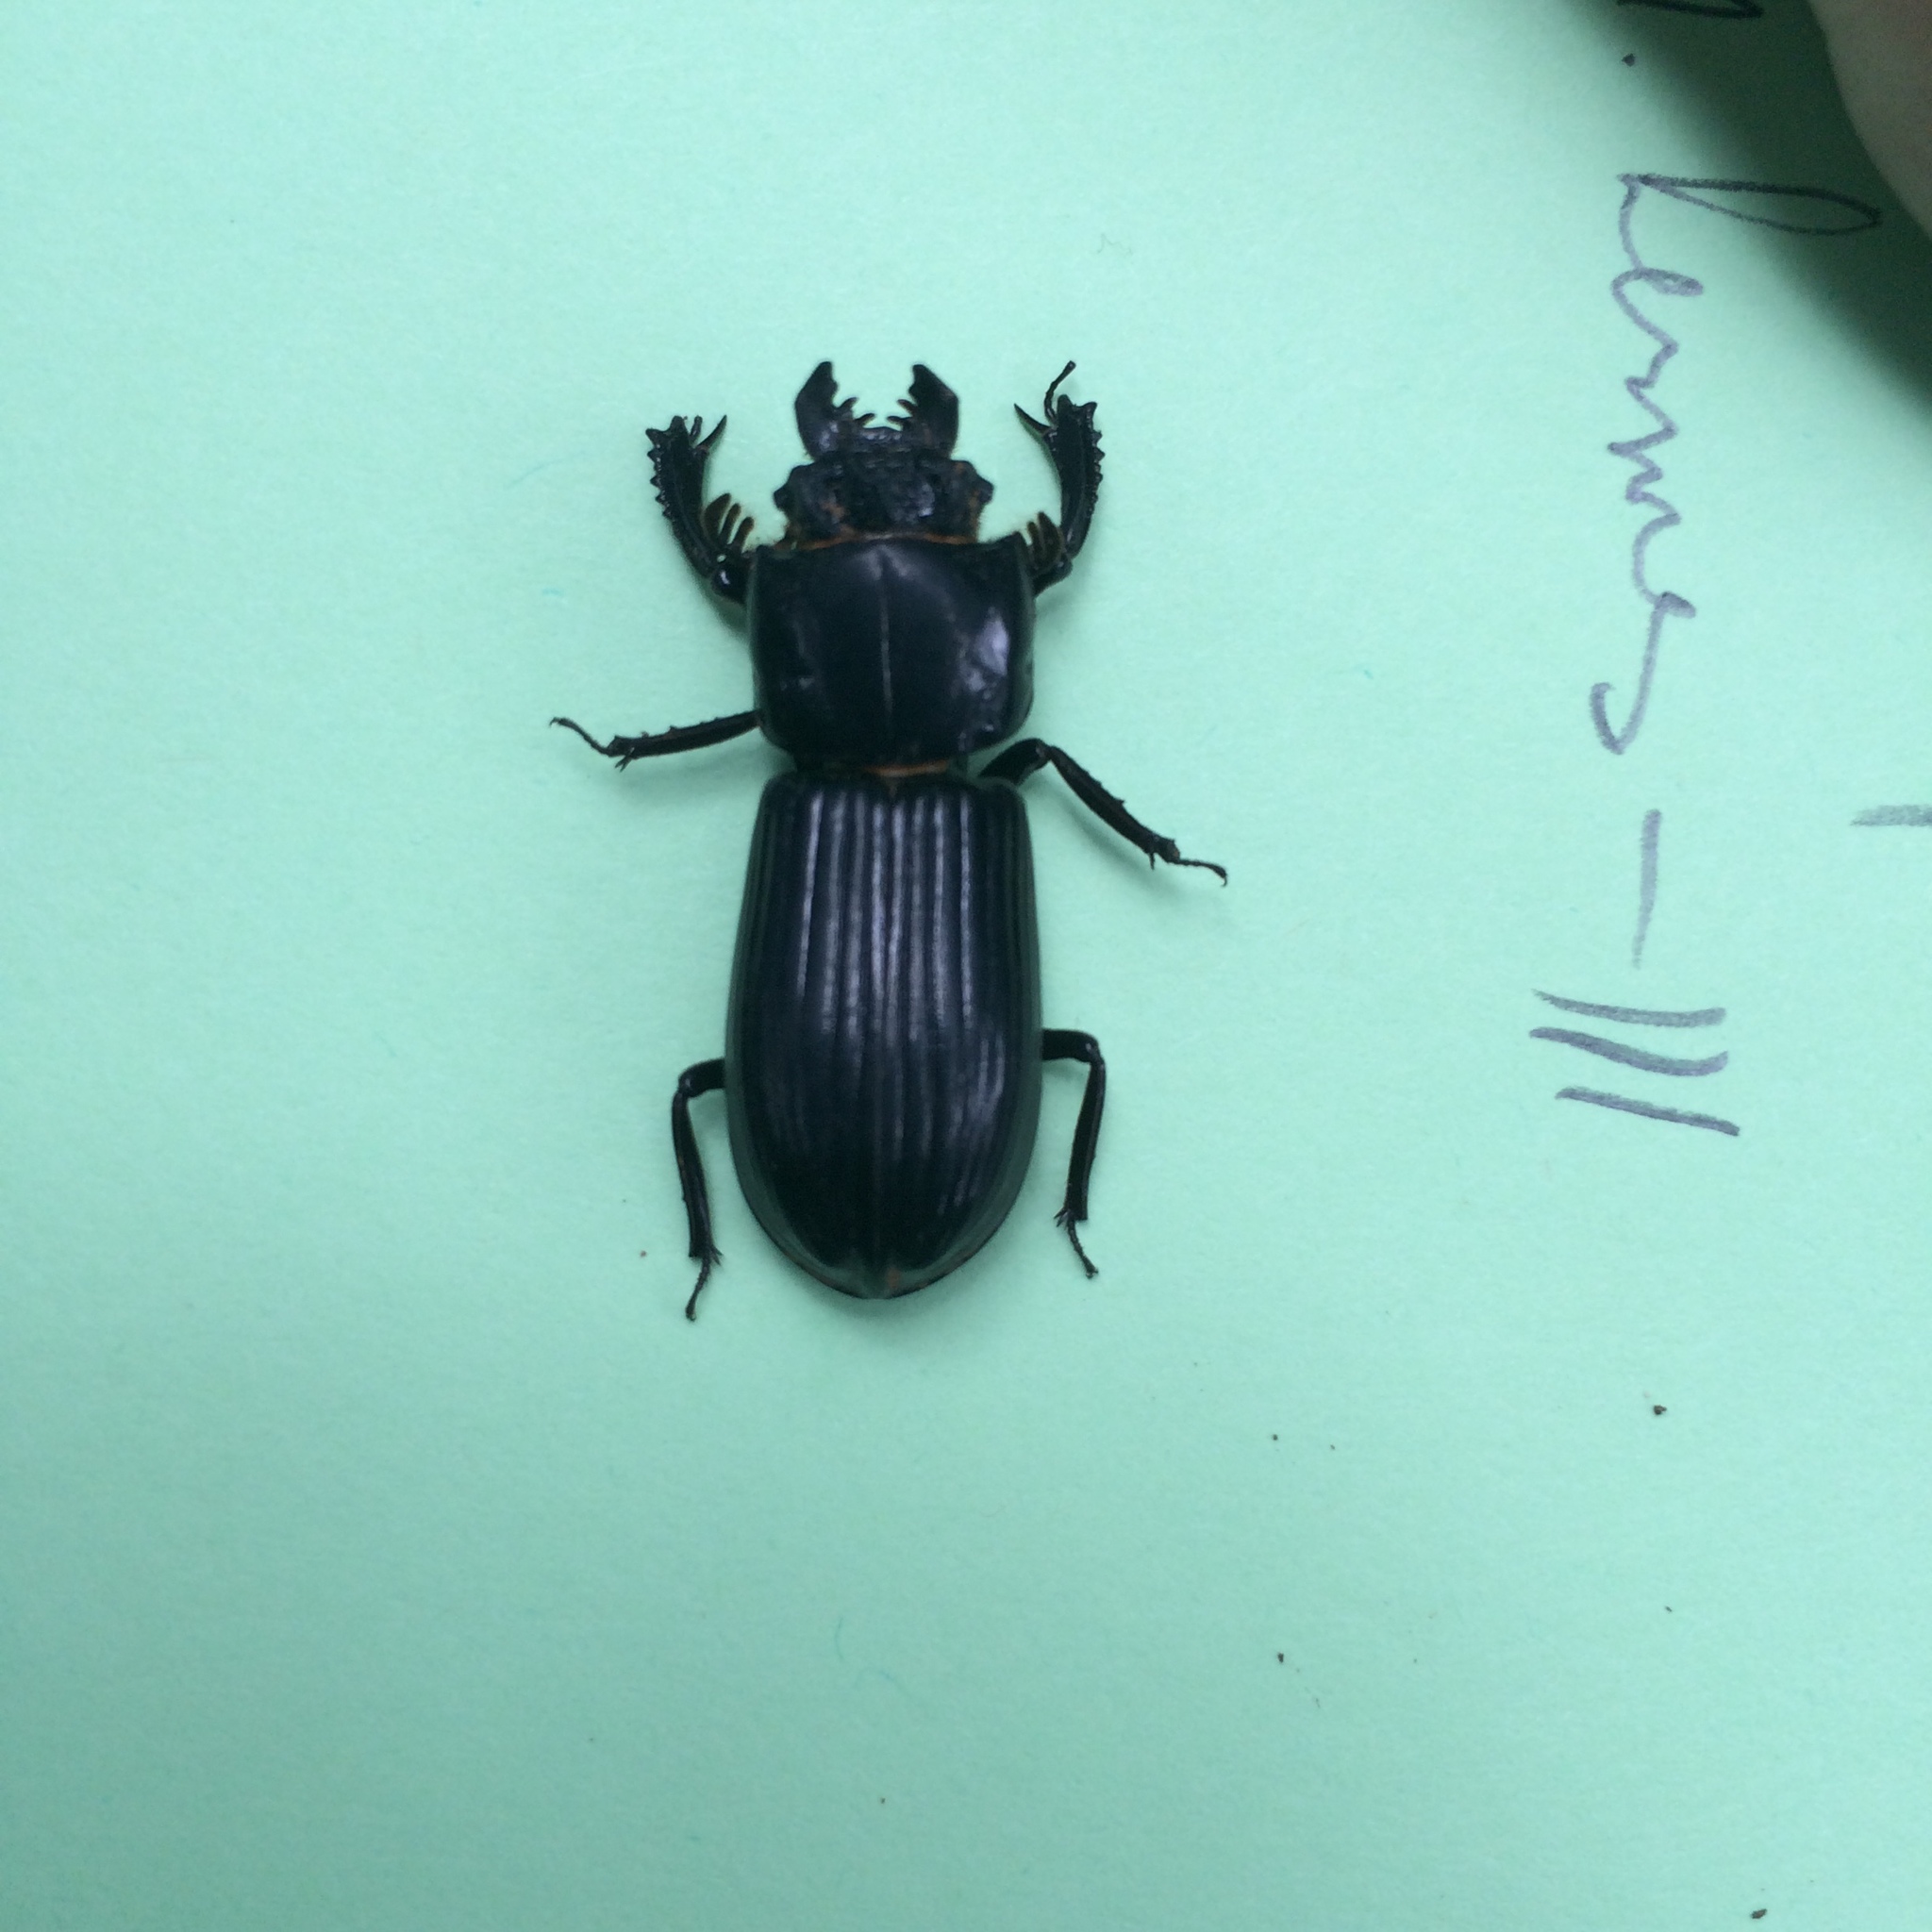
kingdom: Animalia
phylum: Arthropoda
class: Insecta
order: Coleoptera
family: Passalidae
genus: Ptichopus
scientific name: Ptichopus angulatus
